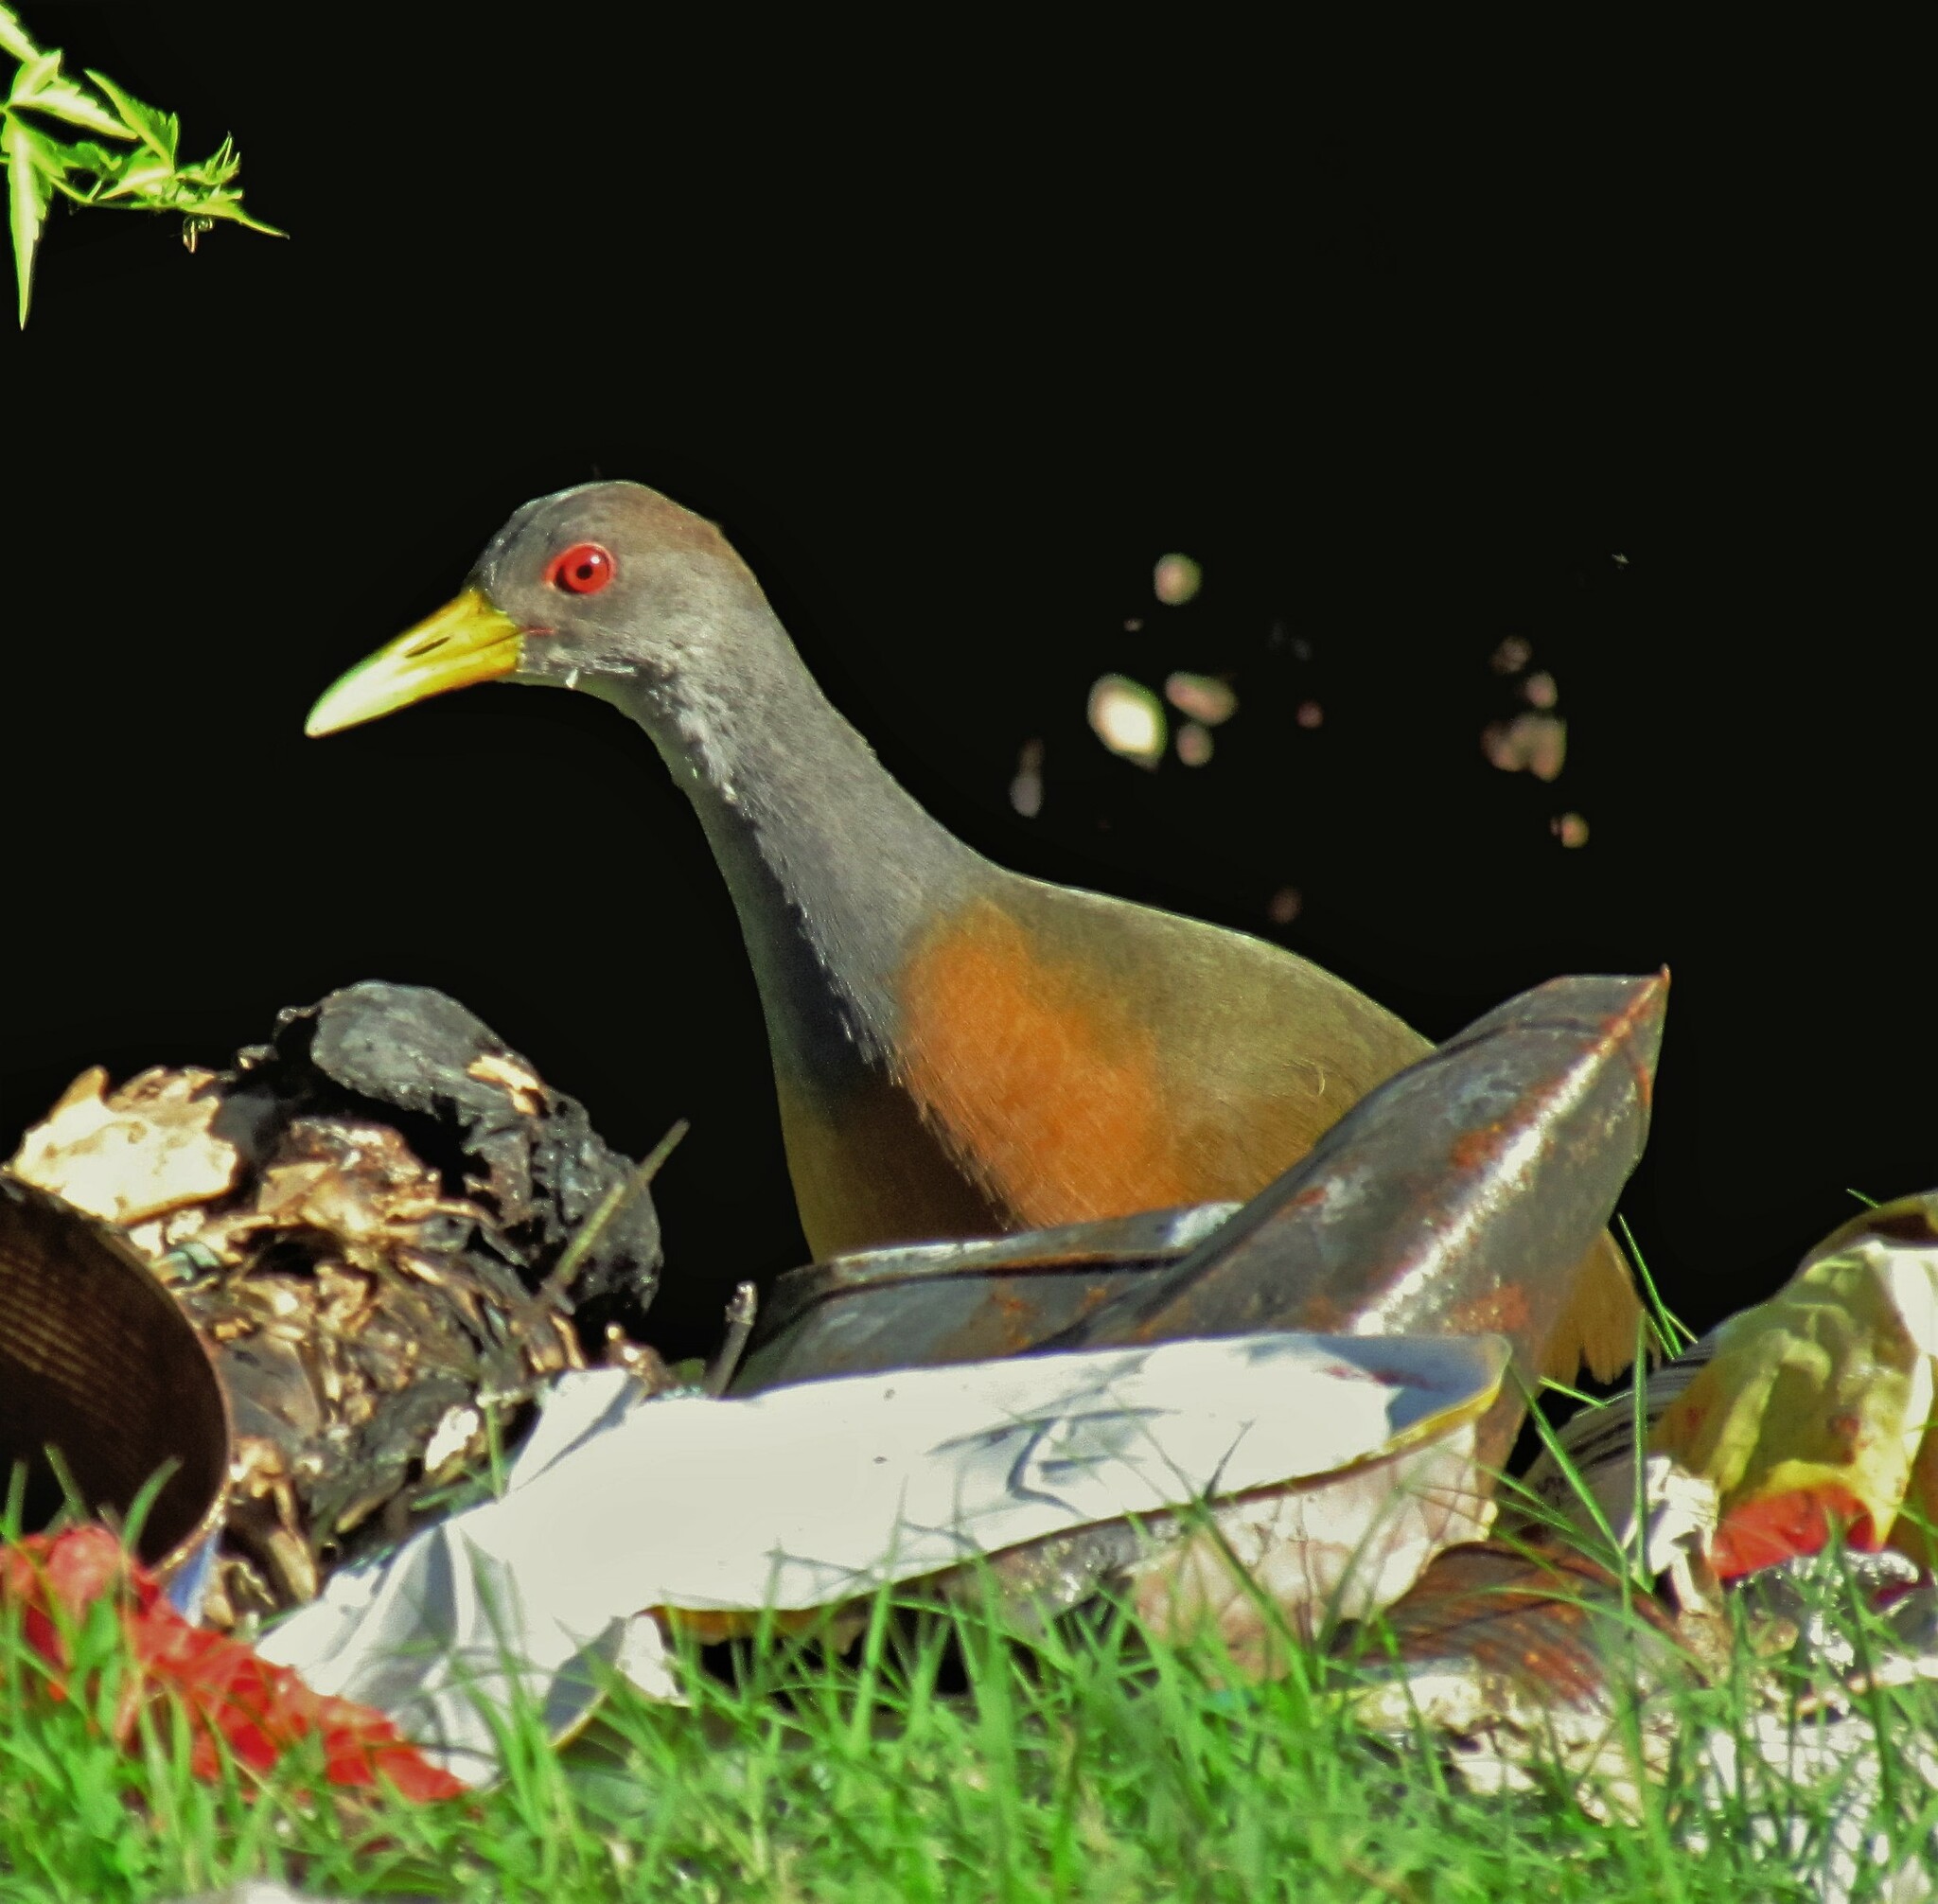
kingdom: Animalia
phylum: Chordata
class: Aves
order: Gruiformes
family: Rallidae
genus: Aramides
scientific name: Aramides cajanea
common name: Gray-necked wood-rail
